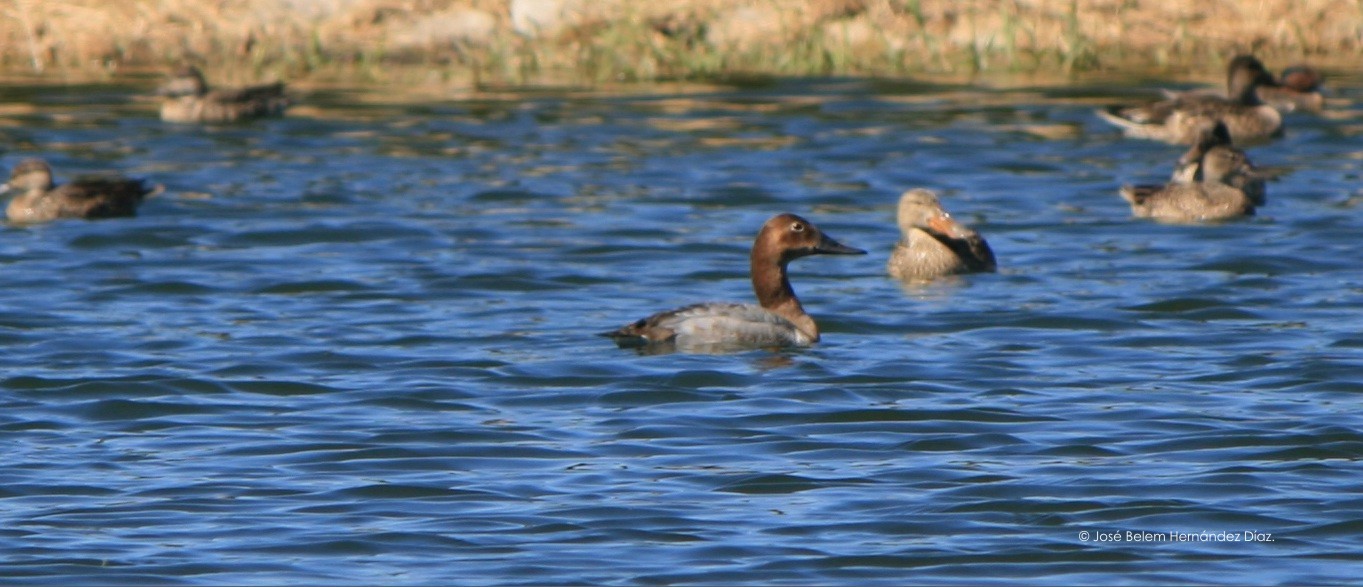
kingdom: Animalia
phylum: Chordata
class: Aves
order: Anseriformes
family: Anatidae
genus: Aythya
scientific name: Aythya valisineria
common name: Canvasback
